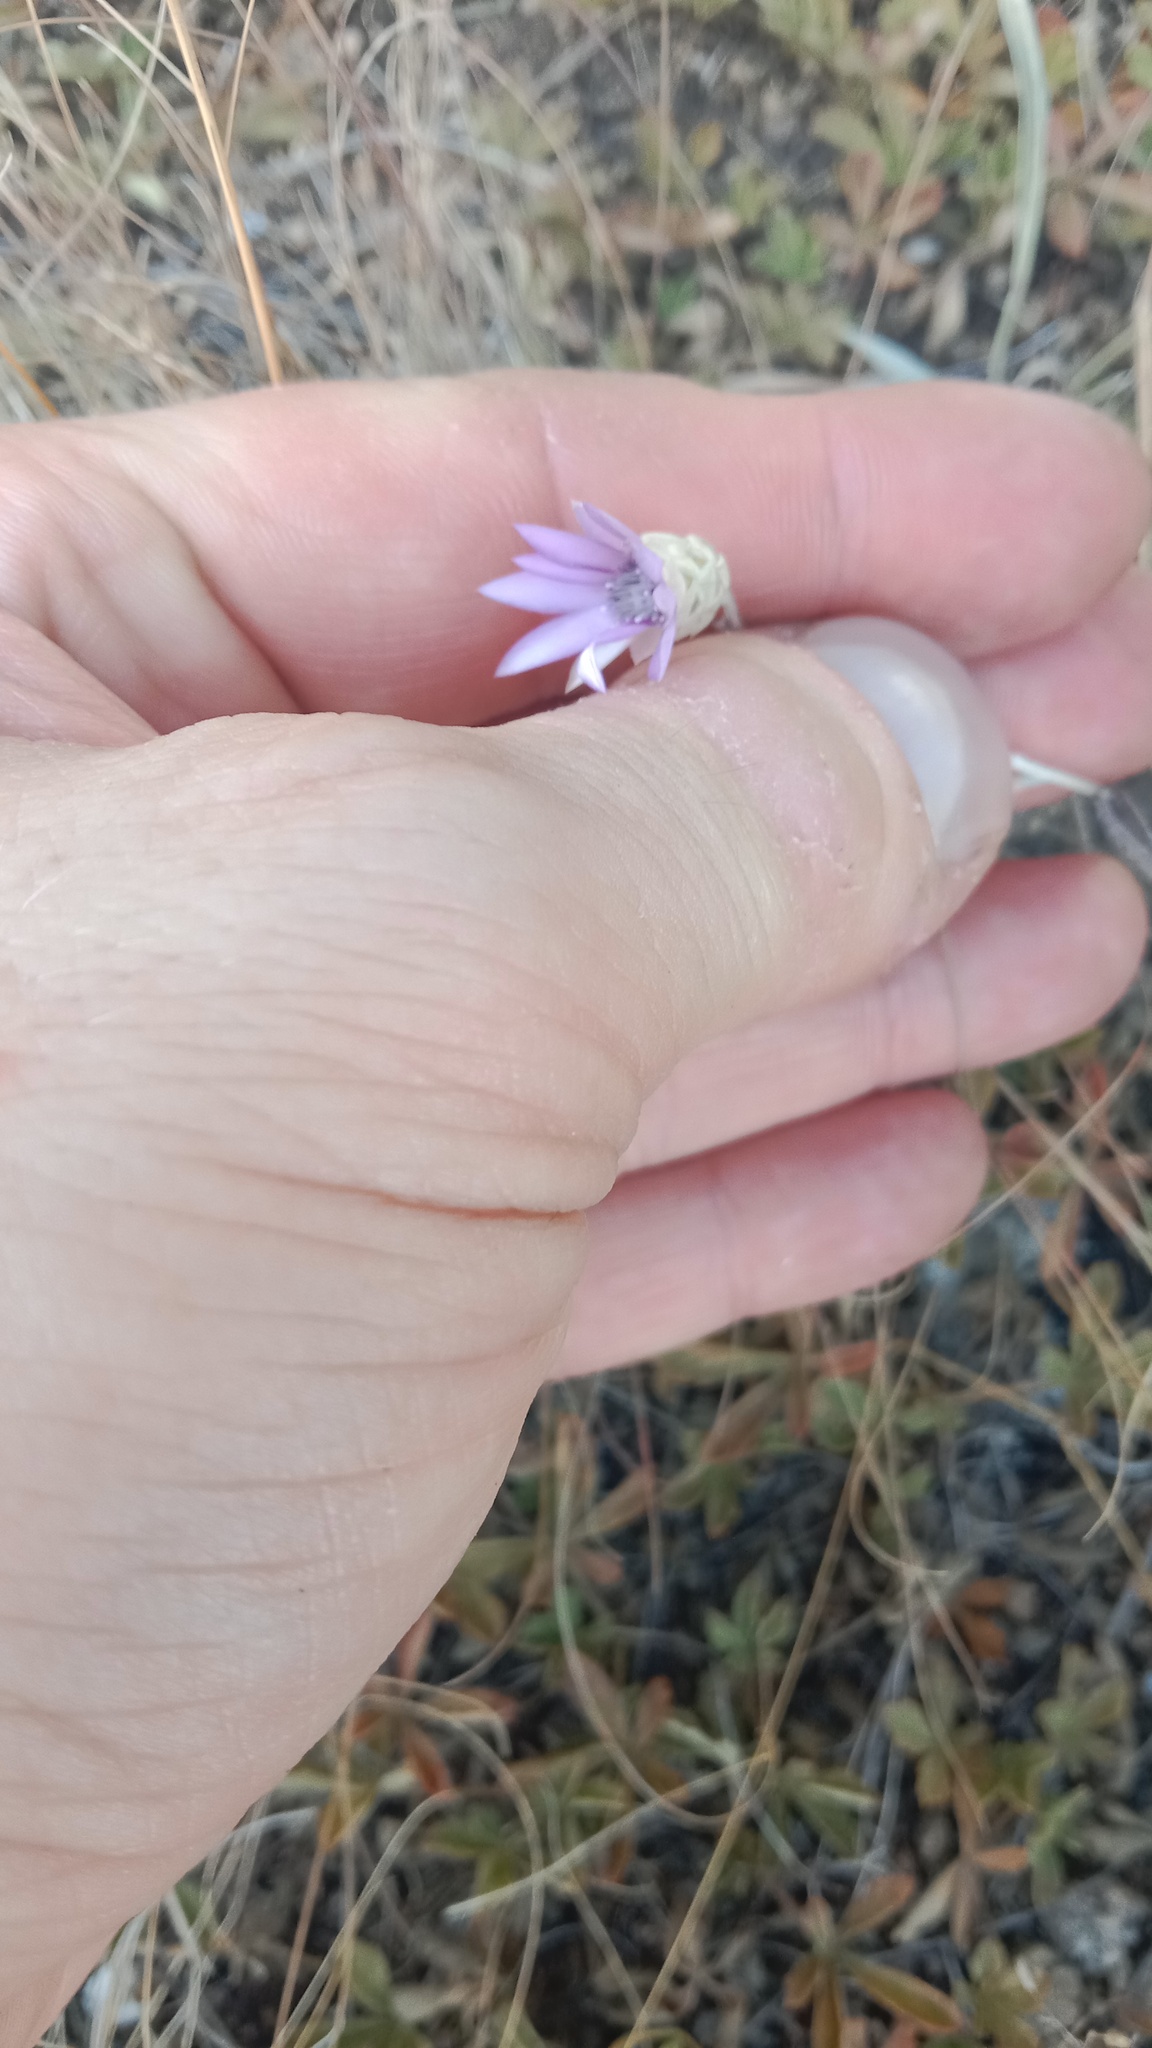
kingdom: Plantae
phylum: Tracheophyta
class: Magnoliopsida
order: Asterales
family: Asteraceae
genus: Xeranthemum
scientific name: Xeranthemum annuum
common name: Immortelle
